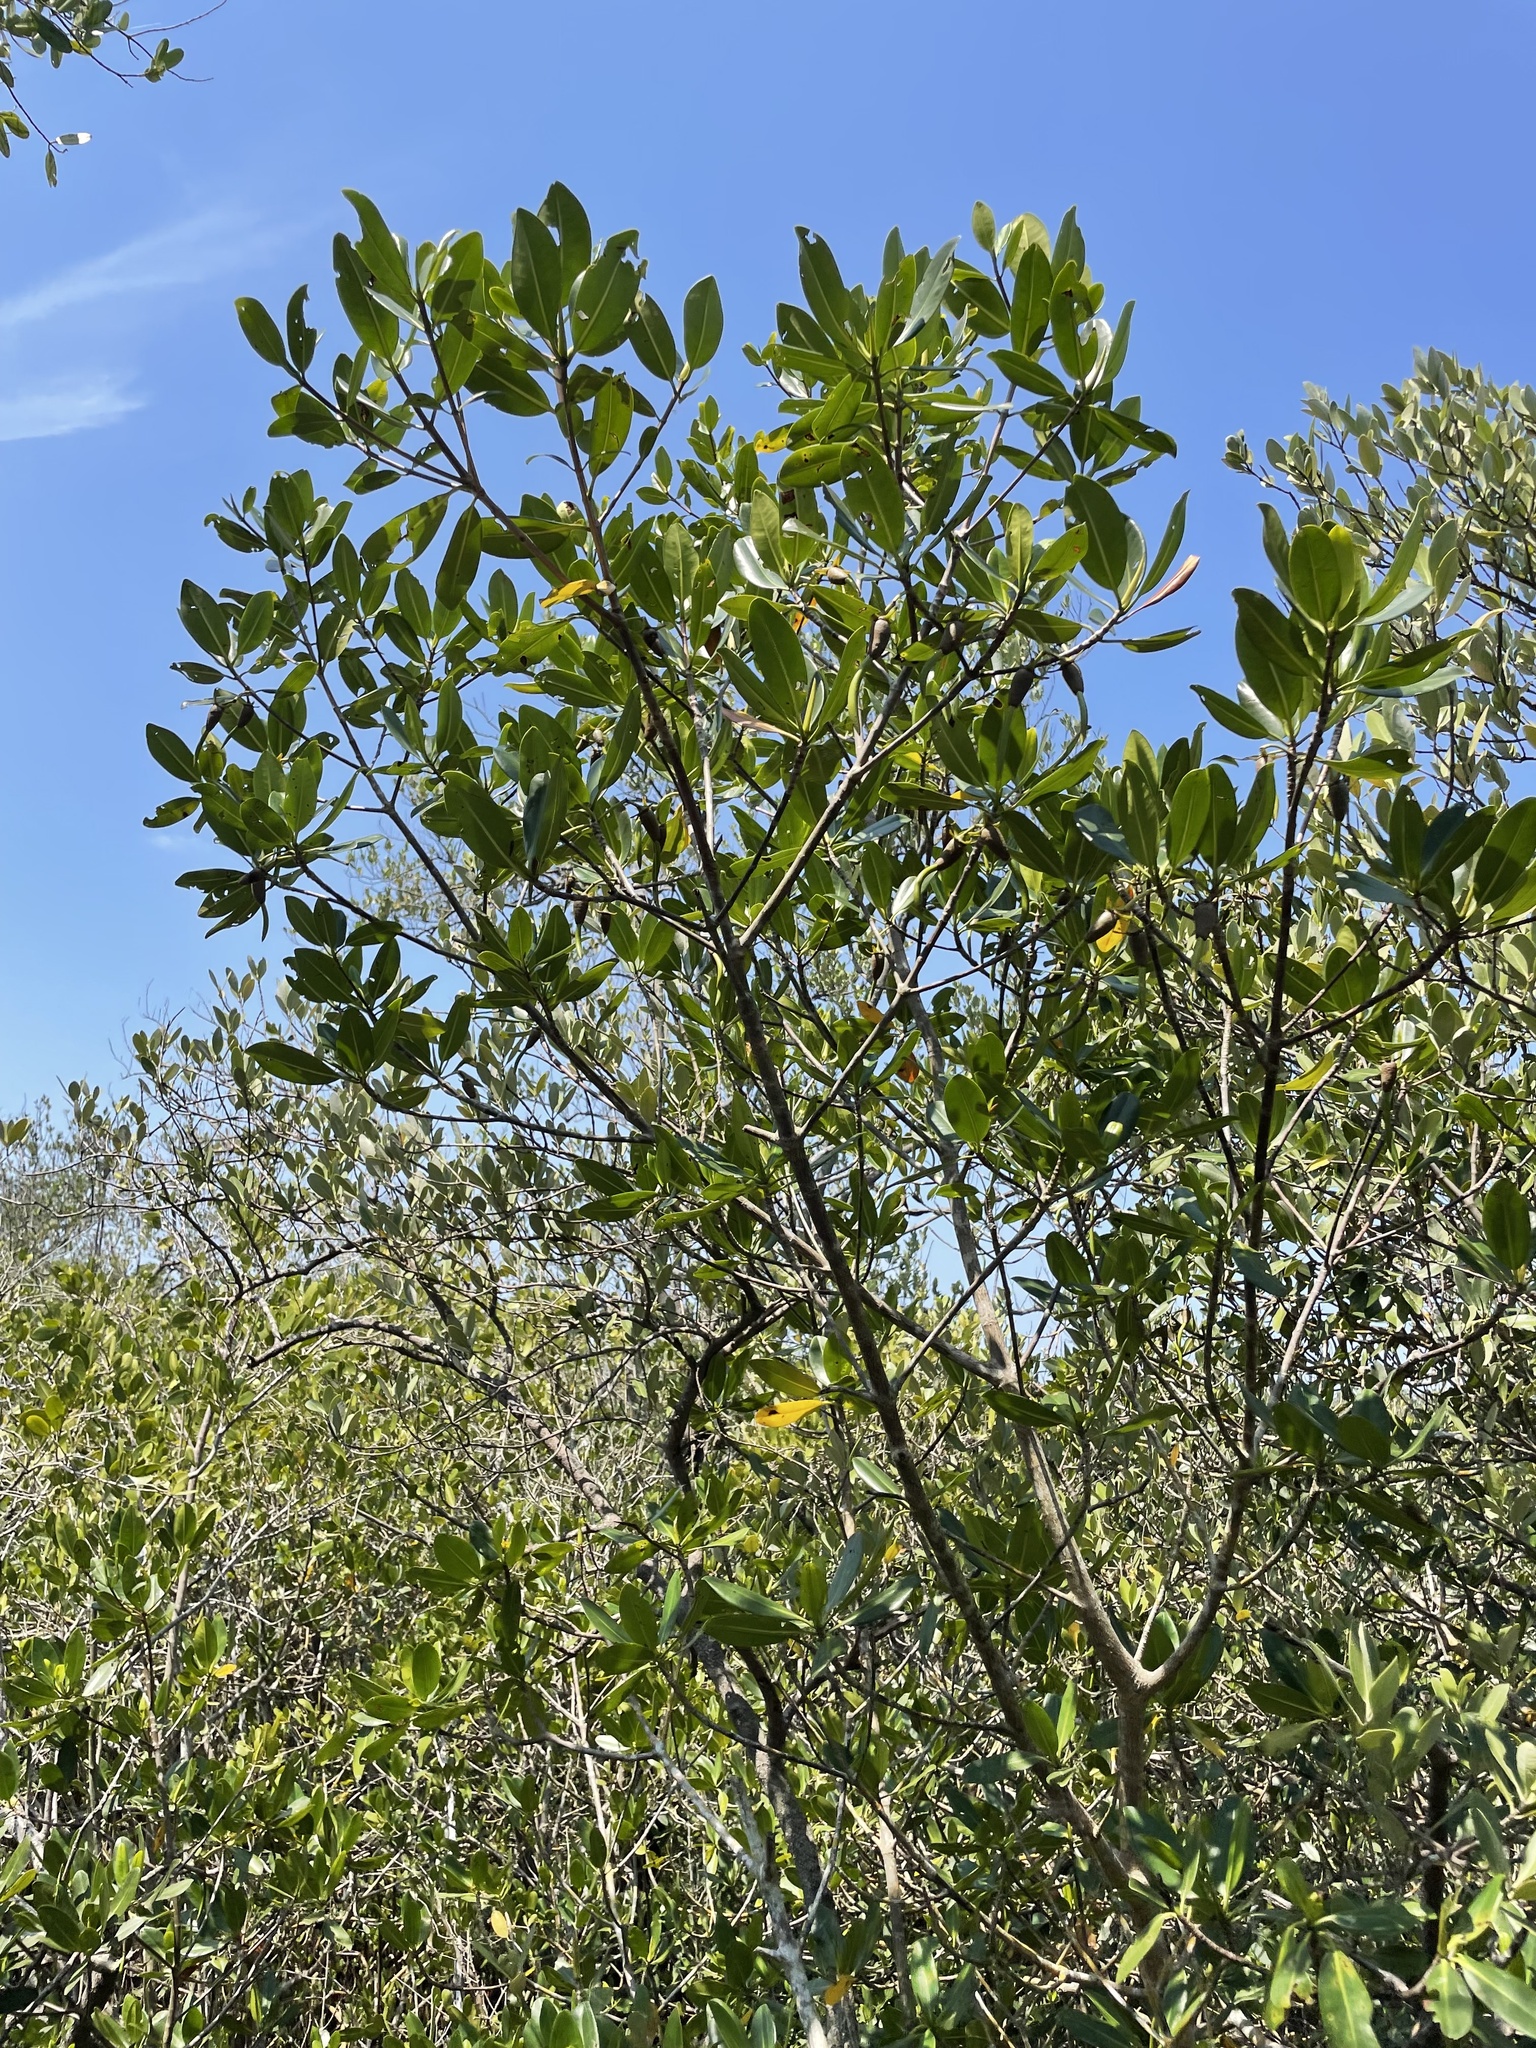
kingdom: Plantae
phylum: Tracheophyta
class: Magnoliopsida
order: Malpighiales
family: Rhizophoraceae
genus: Rhizophora
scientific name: Rhizophora mangle
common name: Red mangrove
